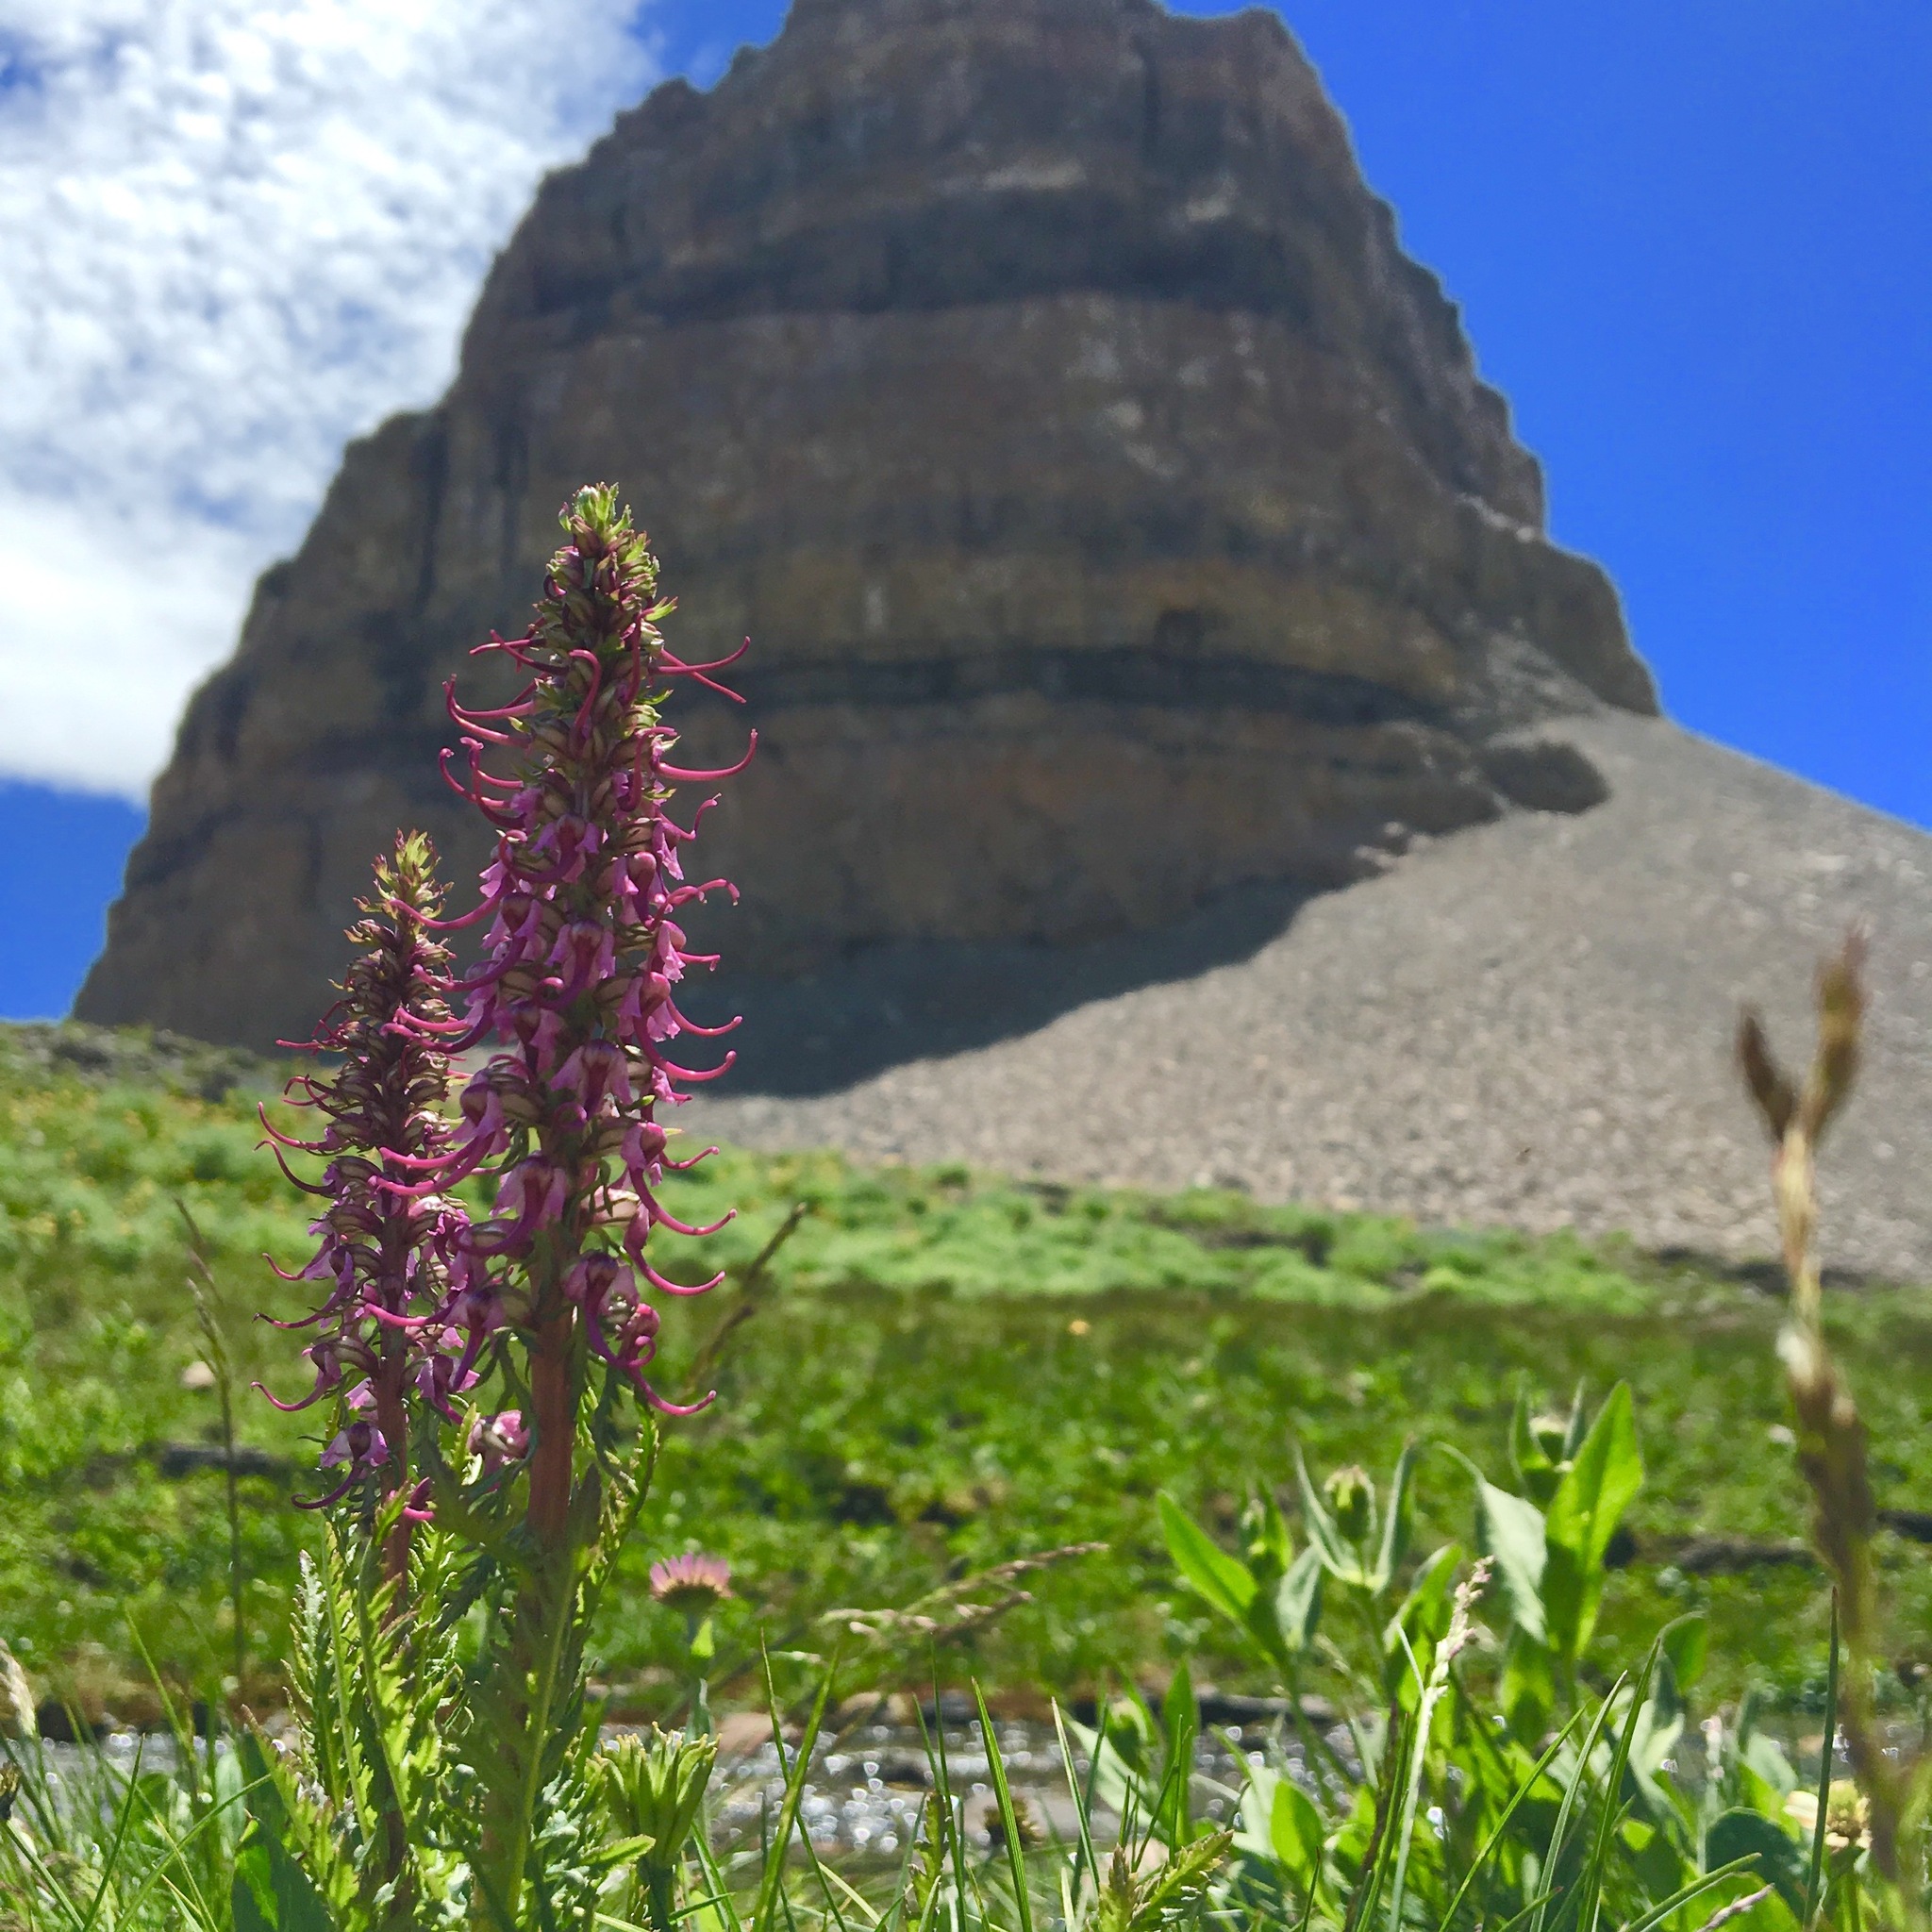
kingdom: Plantae
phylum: Tracheophyta
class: Magnoliopsida
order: Lamiales
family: Orobanchaceae
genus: Pedicularis
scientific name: Pedicularis groenlandica
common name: Elephant's-head
